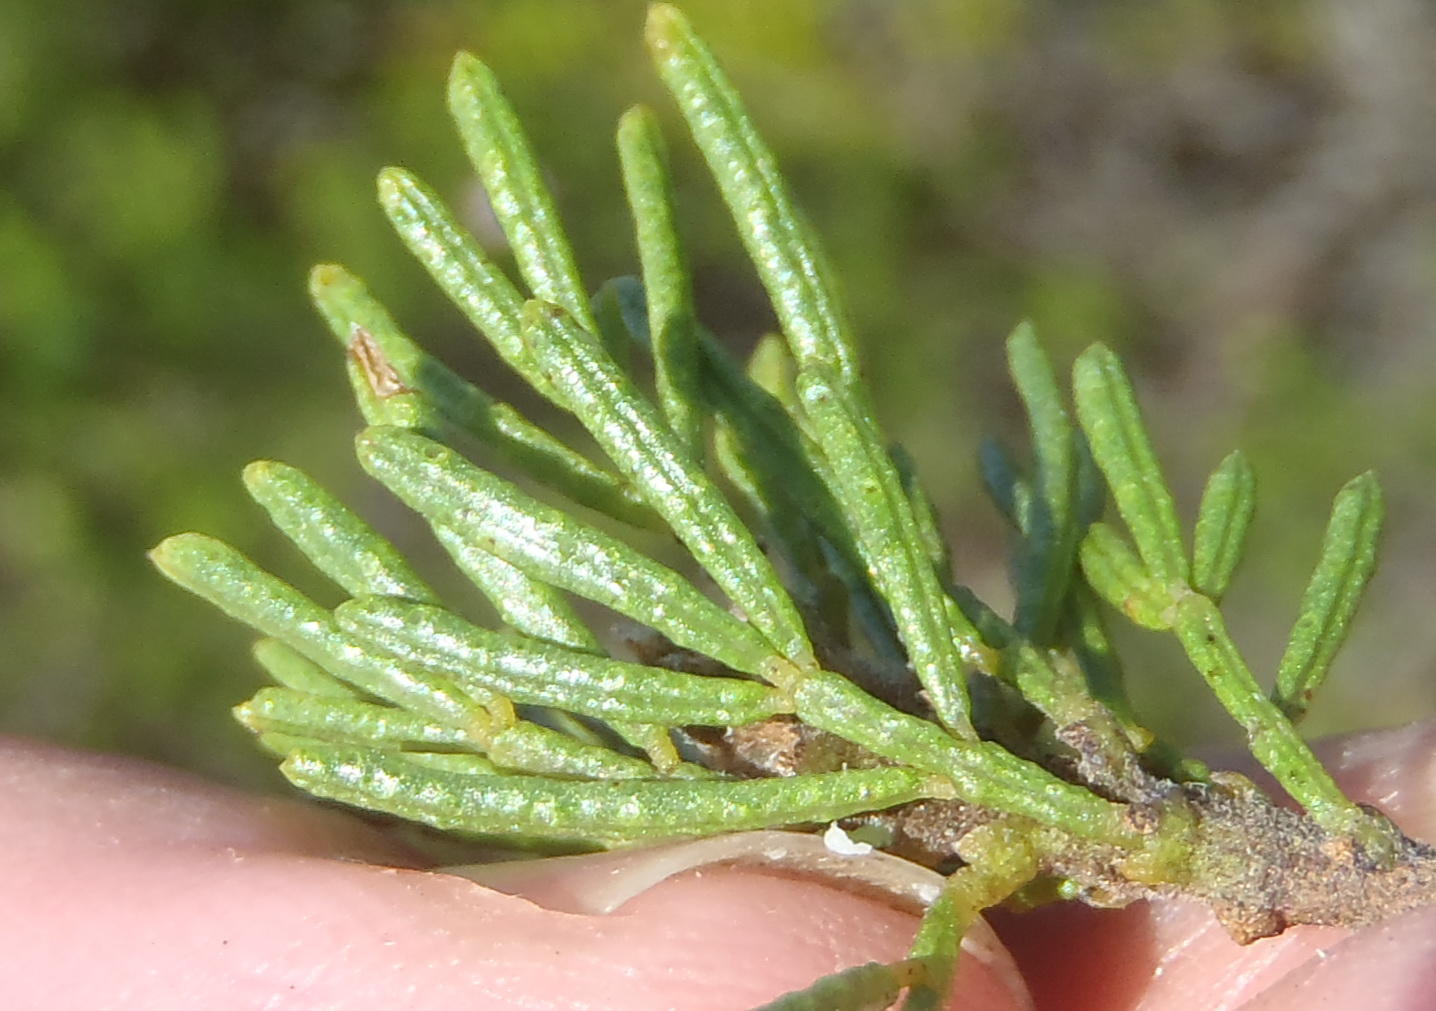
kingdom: Plantae
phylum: Tracheophyta
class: Magnoliopsida
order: Fabales
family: Fabaceae
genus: Psoralea
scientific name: Psoralea vanberkelae
